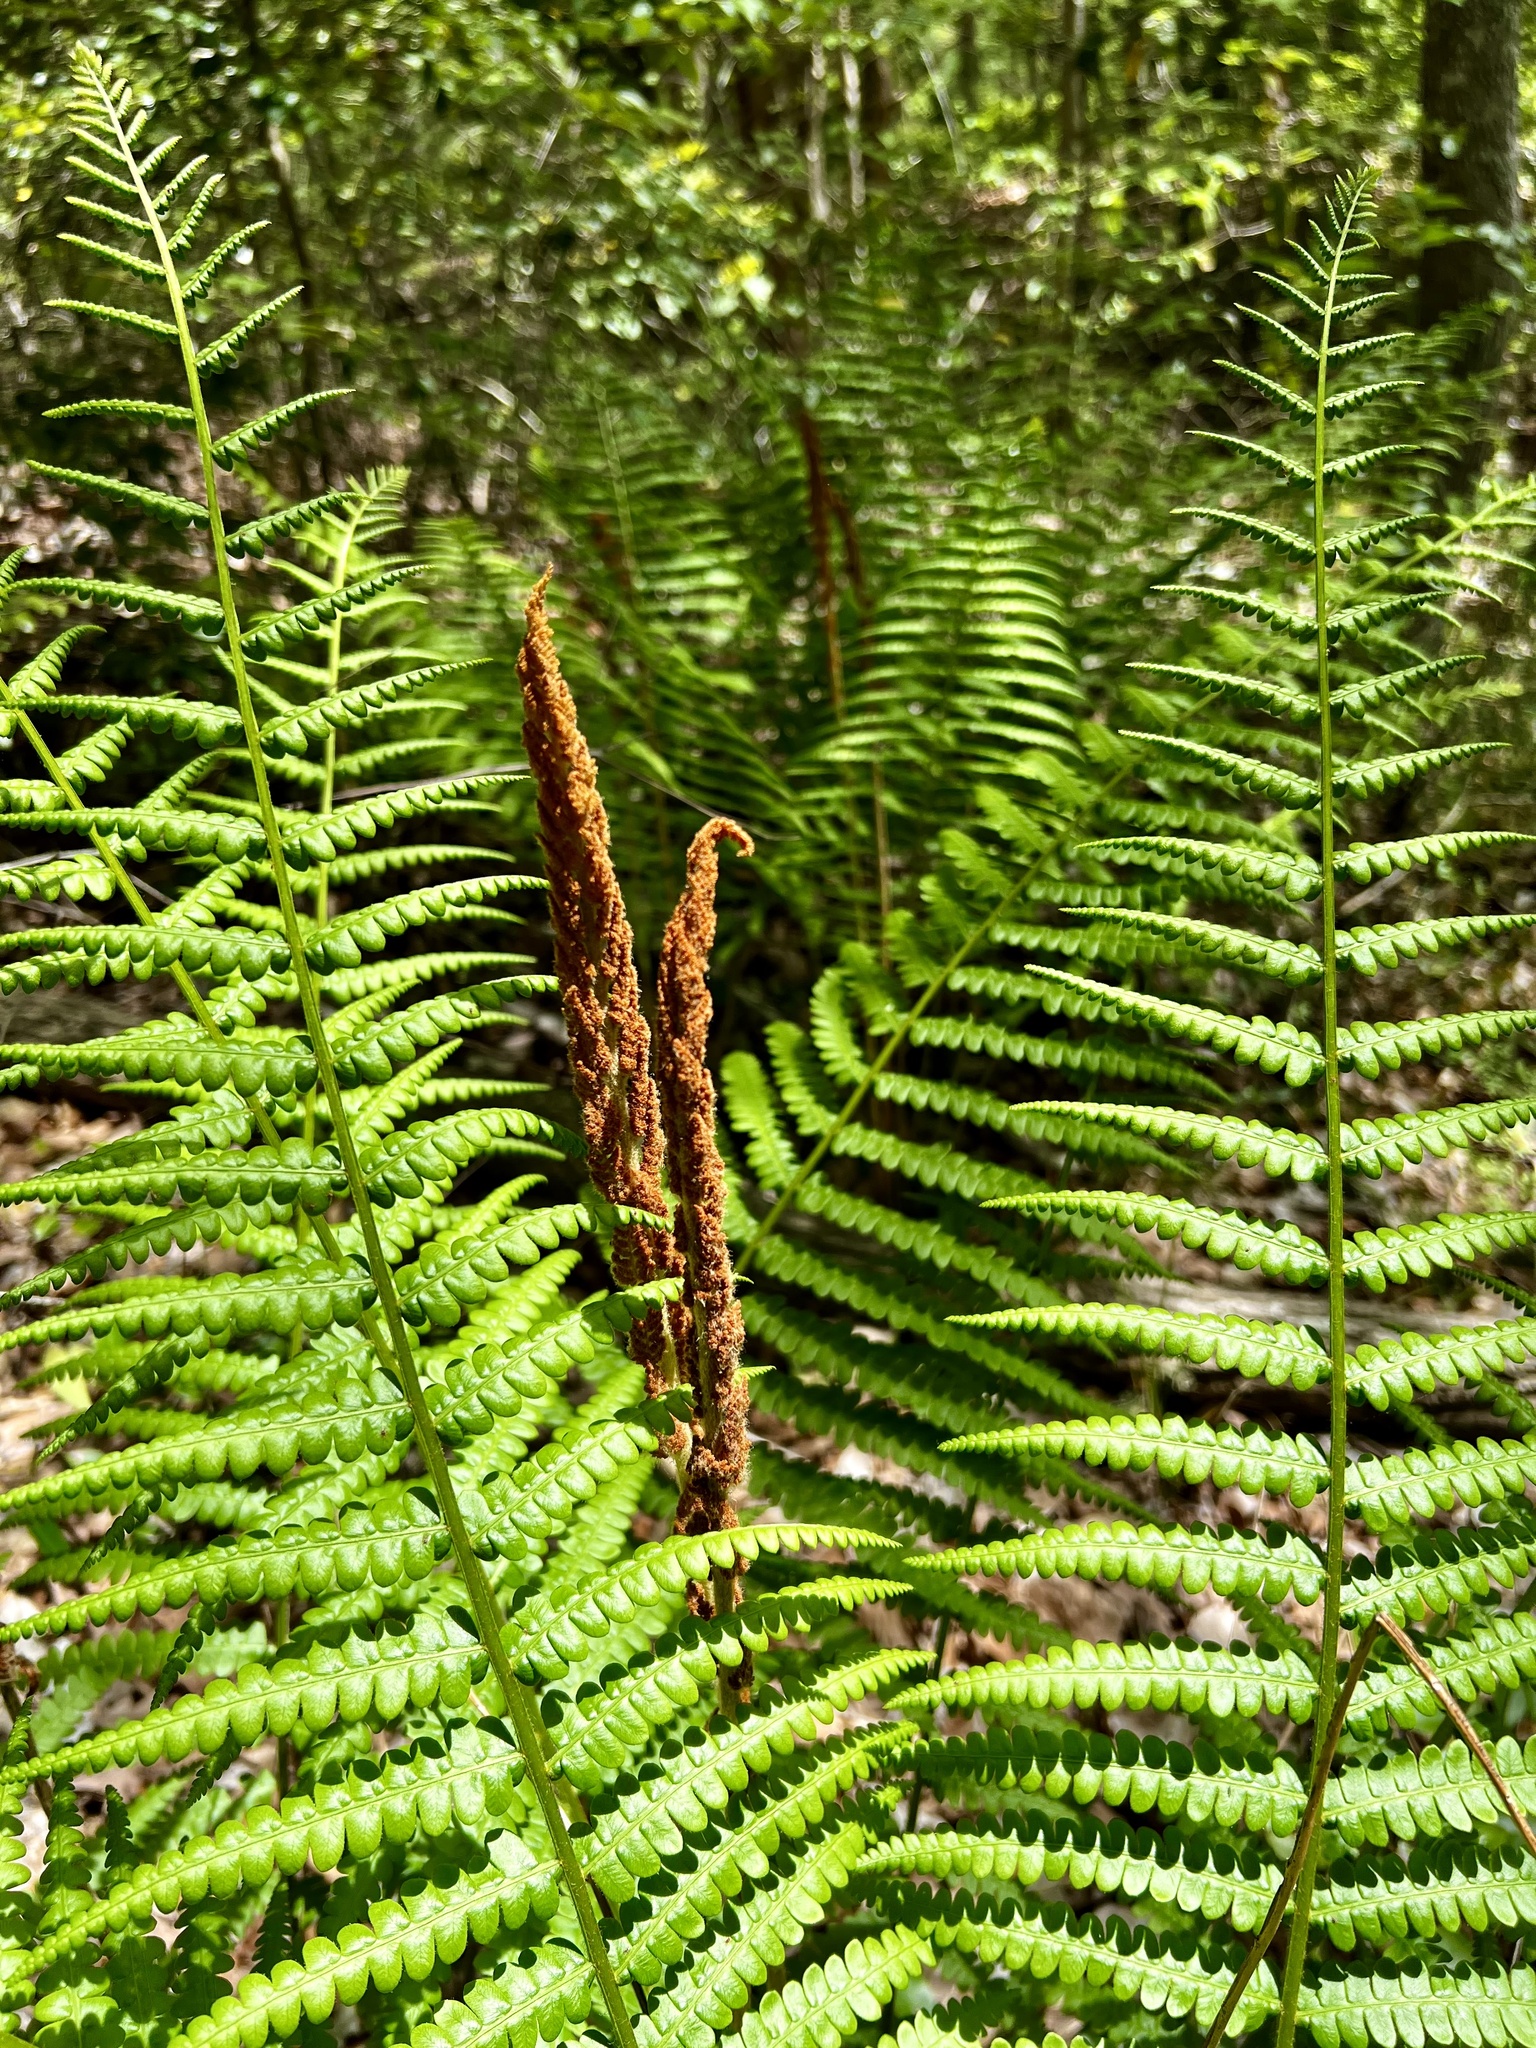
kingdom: Plantae
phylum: Tracheophyta
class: Polypodiopsida
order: Osmundales
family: Osmundaceae
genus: Osmundastrum
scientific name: Osmundastrum cinnamomeum
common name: Cinnamon fern
